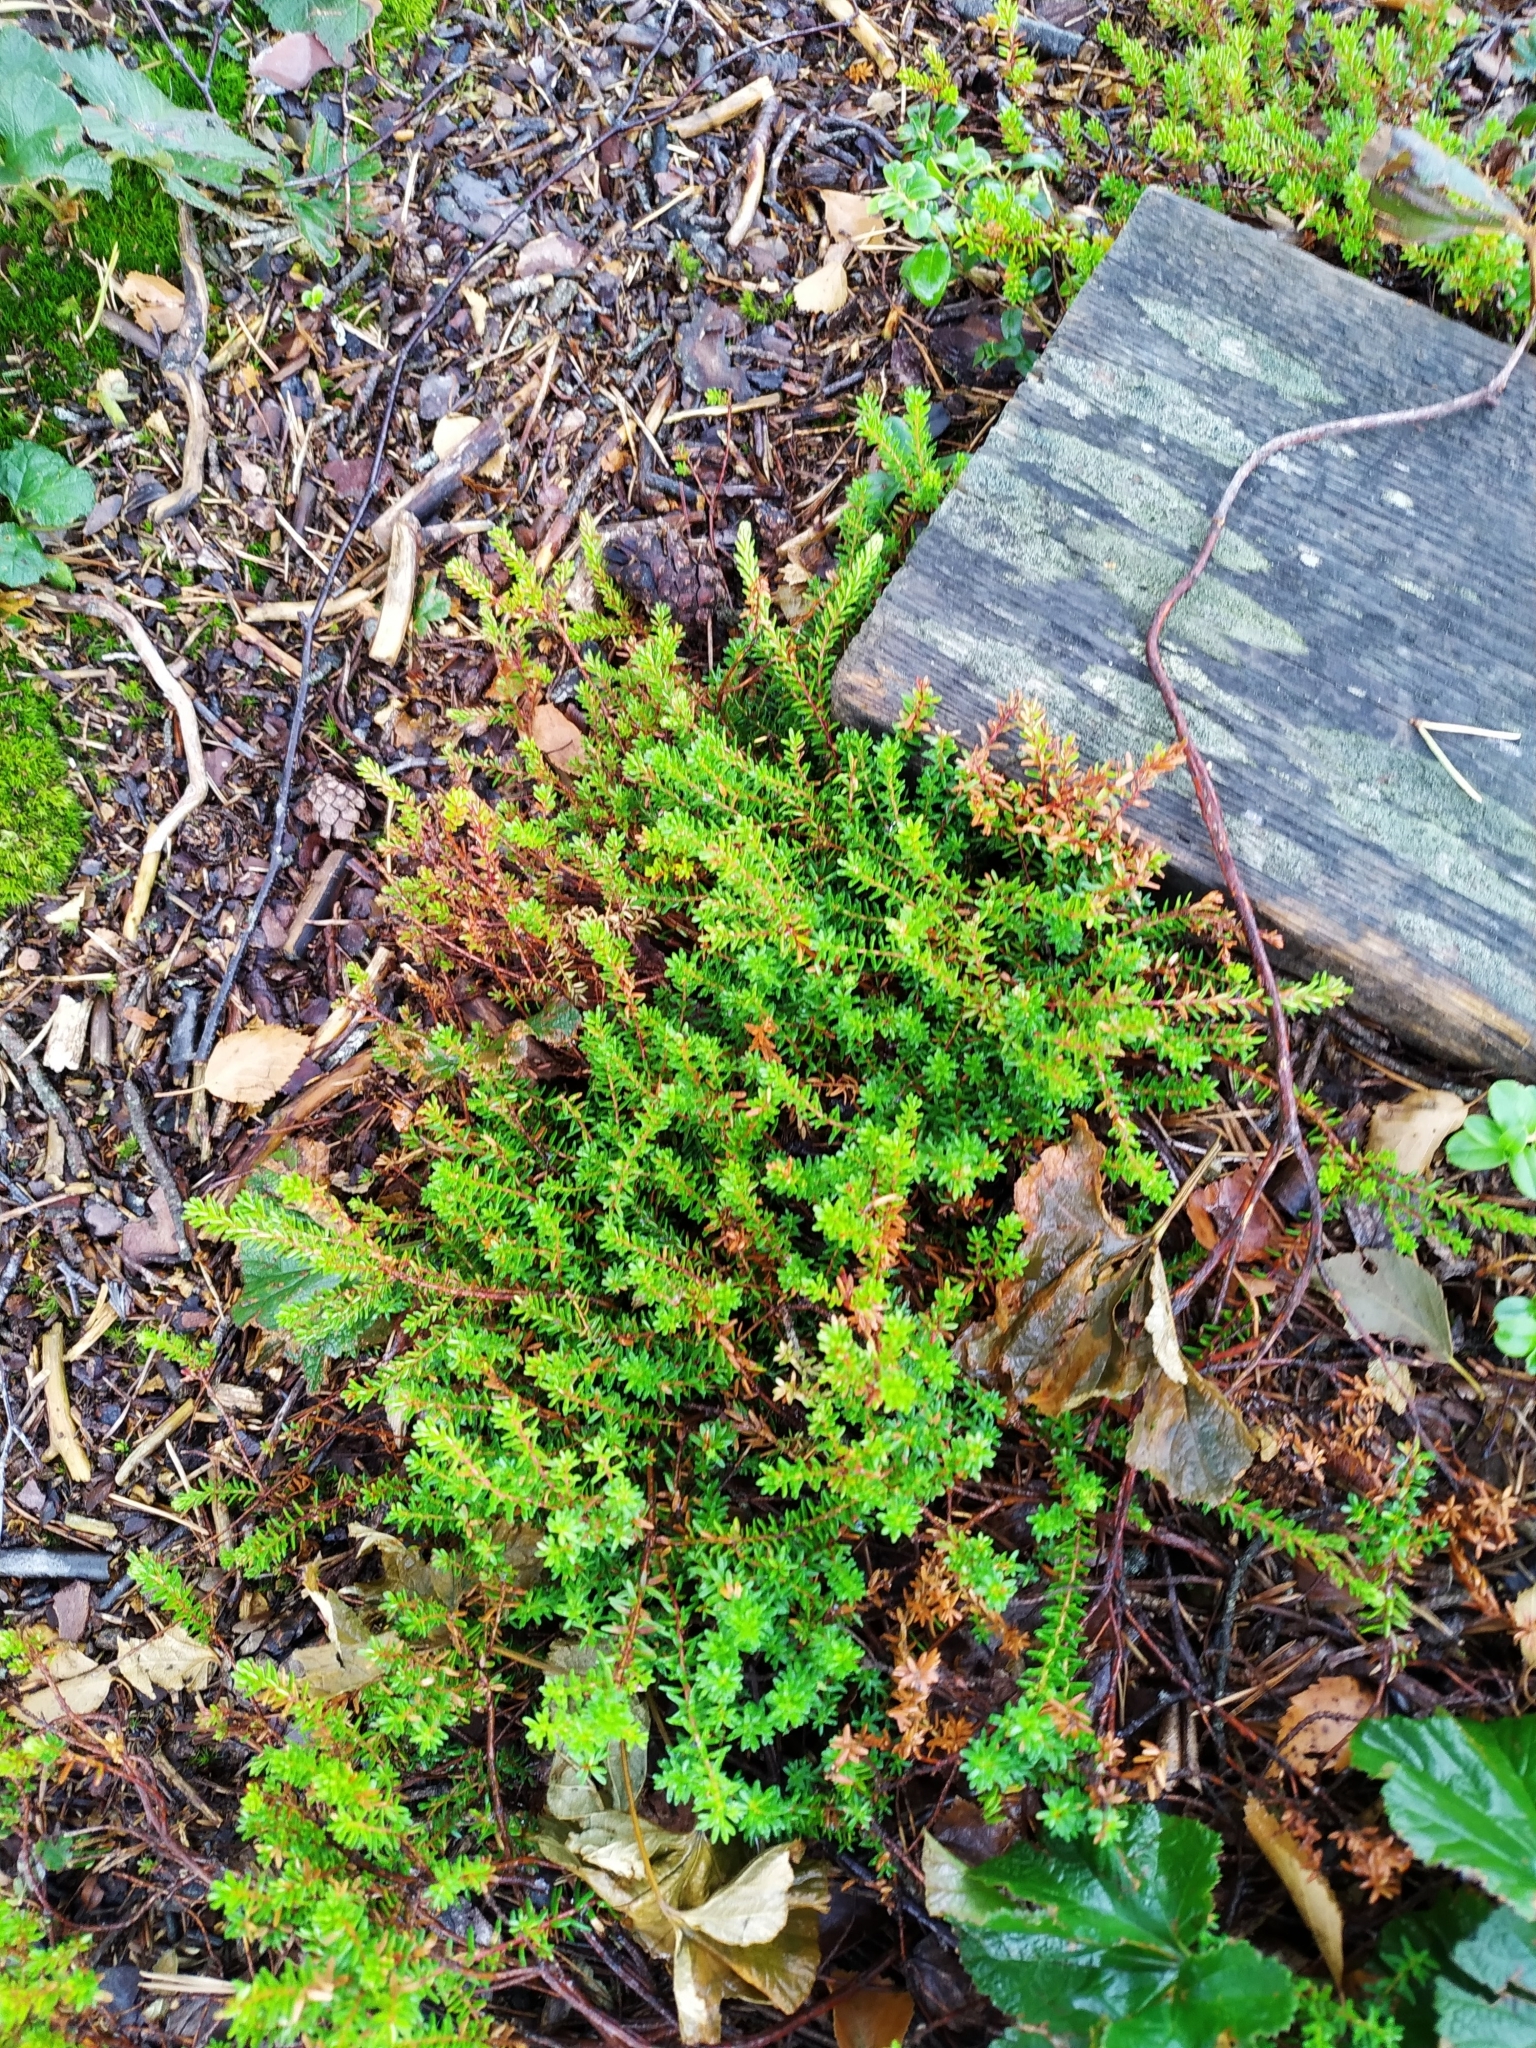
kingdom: Plantae
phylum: Tracheophyta
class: Magnoliopsida
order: Ericales
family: Ericaceae
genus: Empetrum
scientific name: Empetrum nigrum
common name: Black crowberry
